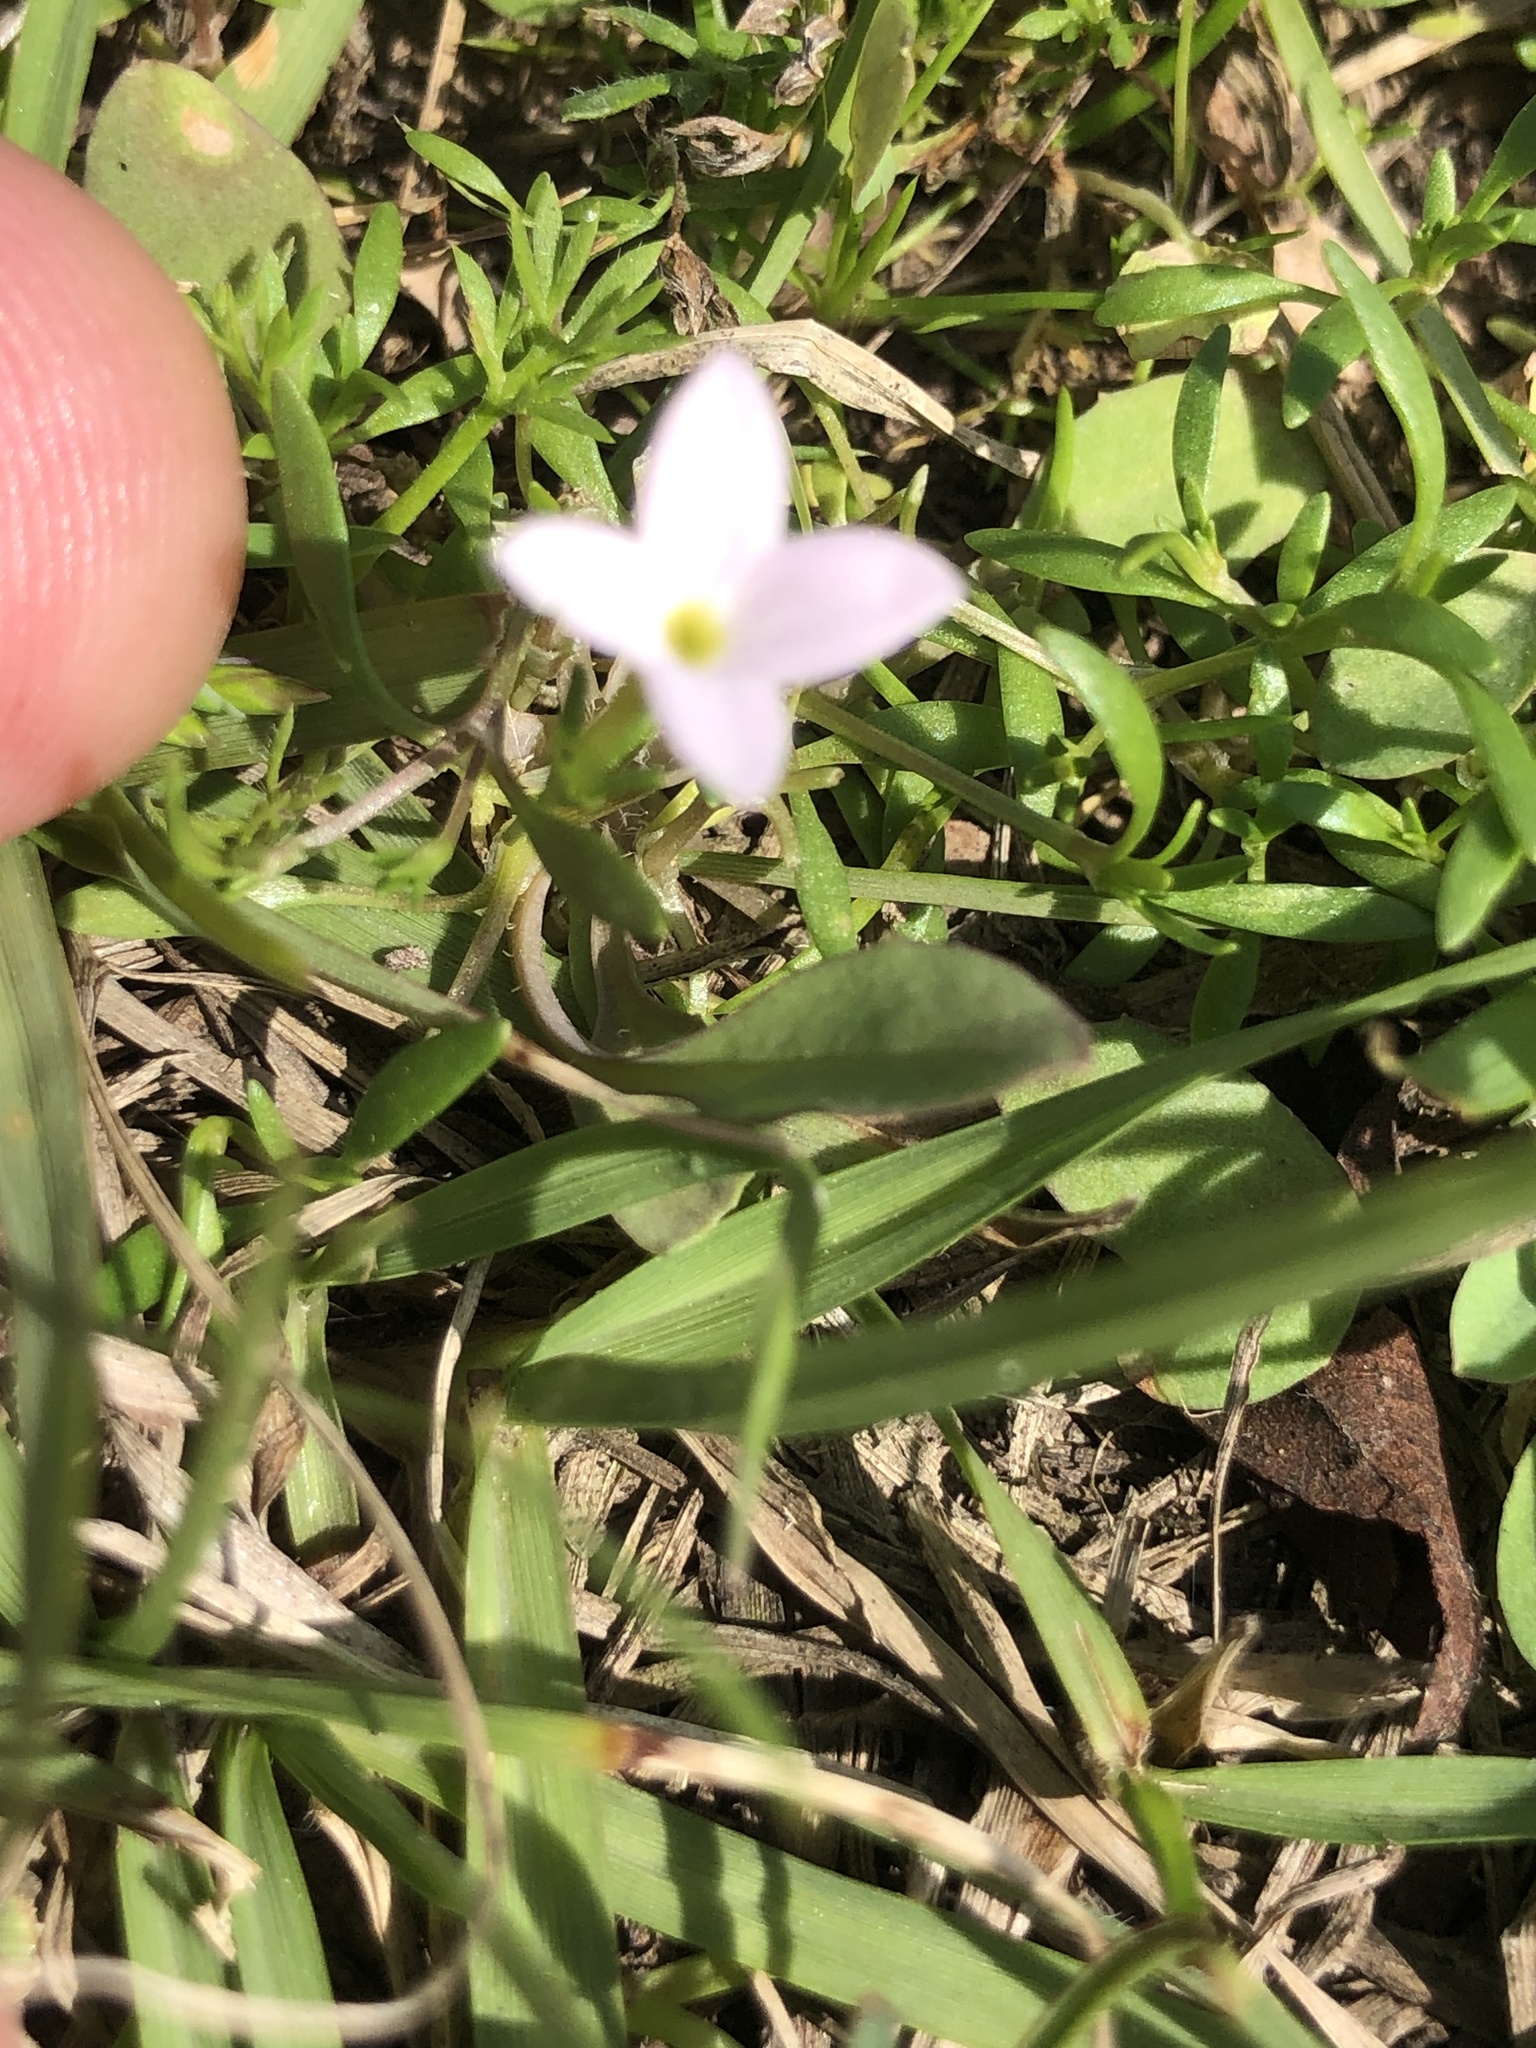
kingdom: Plantae
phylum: Tracheophyta
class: Magnoliopsida
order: Gentianales
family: Rubiaceae
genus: Houstonia
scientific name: Houstonia rosea
